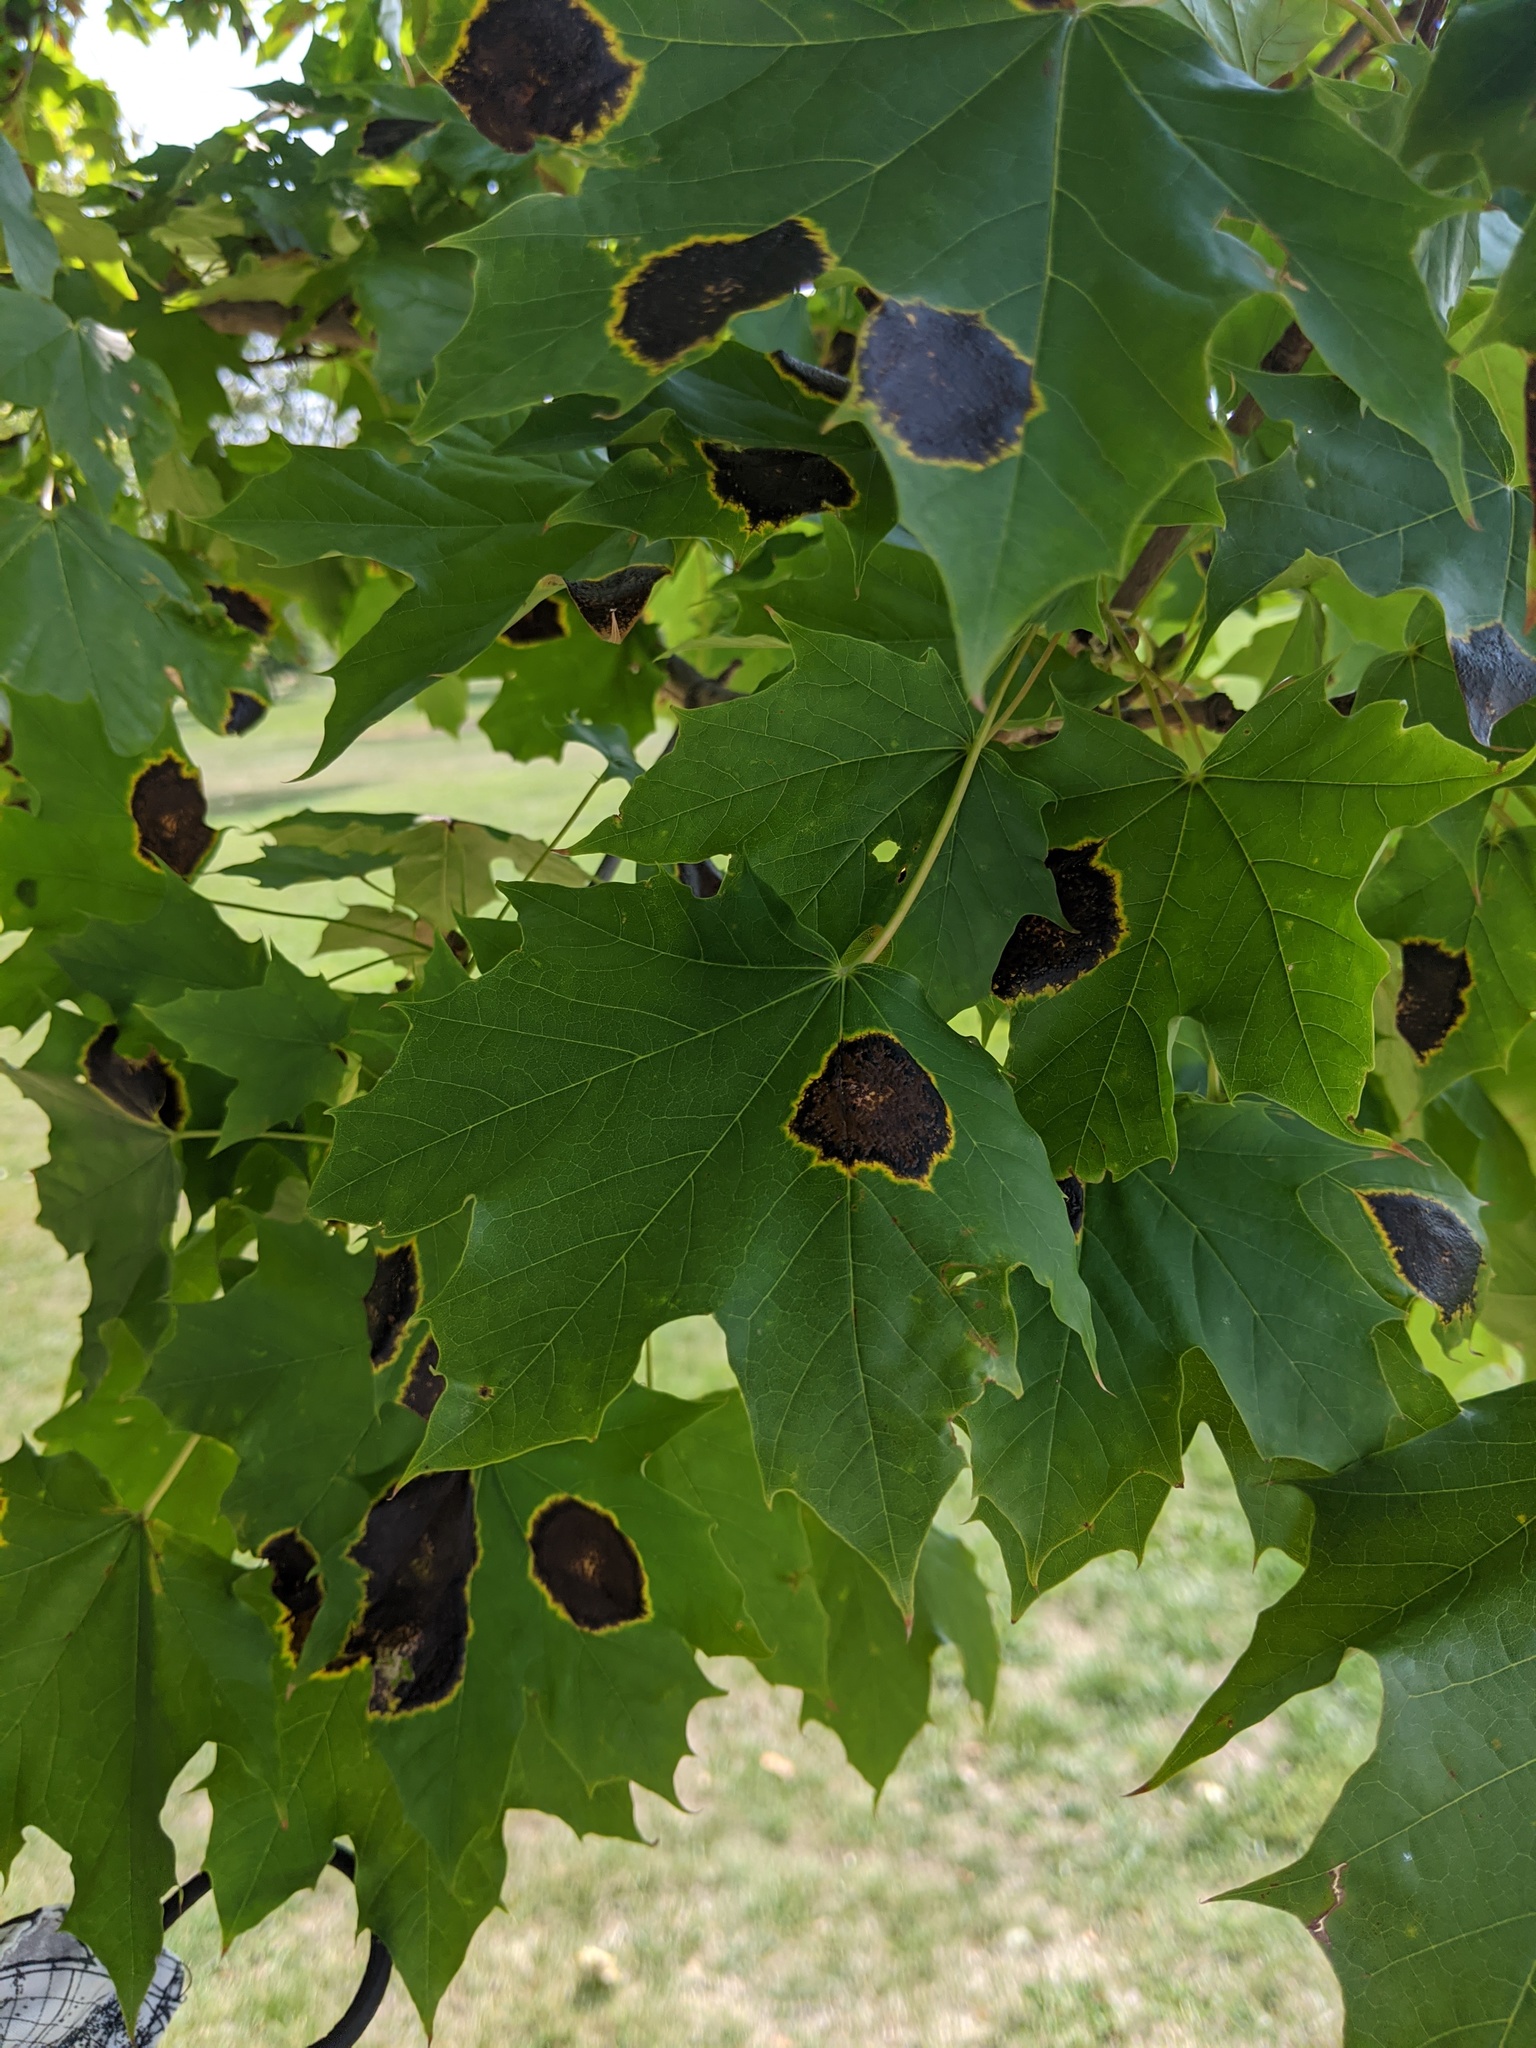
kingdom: Fungi
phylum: Ascomycota
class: Leotiomycetes
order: Rhytismatales
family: Rhytismataceae
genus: Rhytisma
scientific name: Rhytisma acerinum
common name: European tar spot
